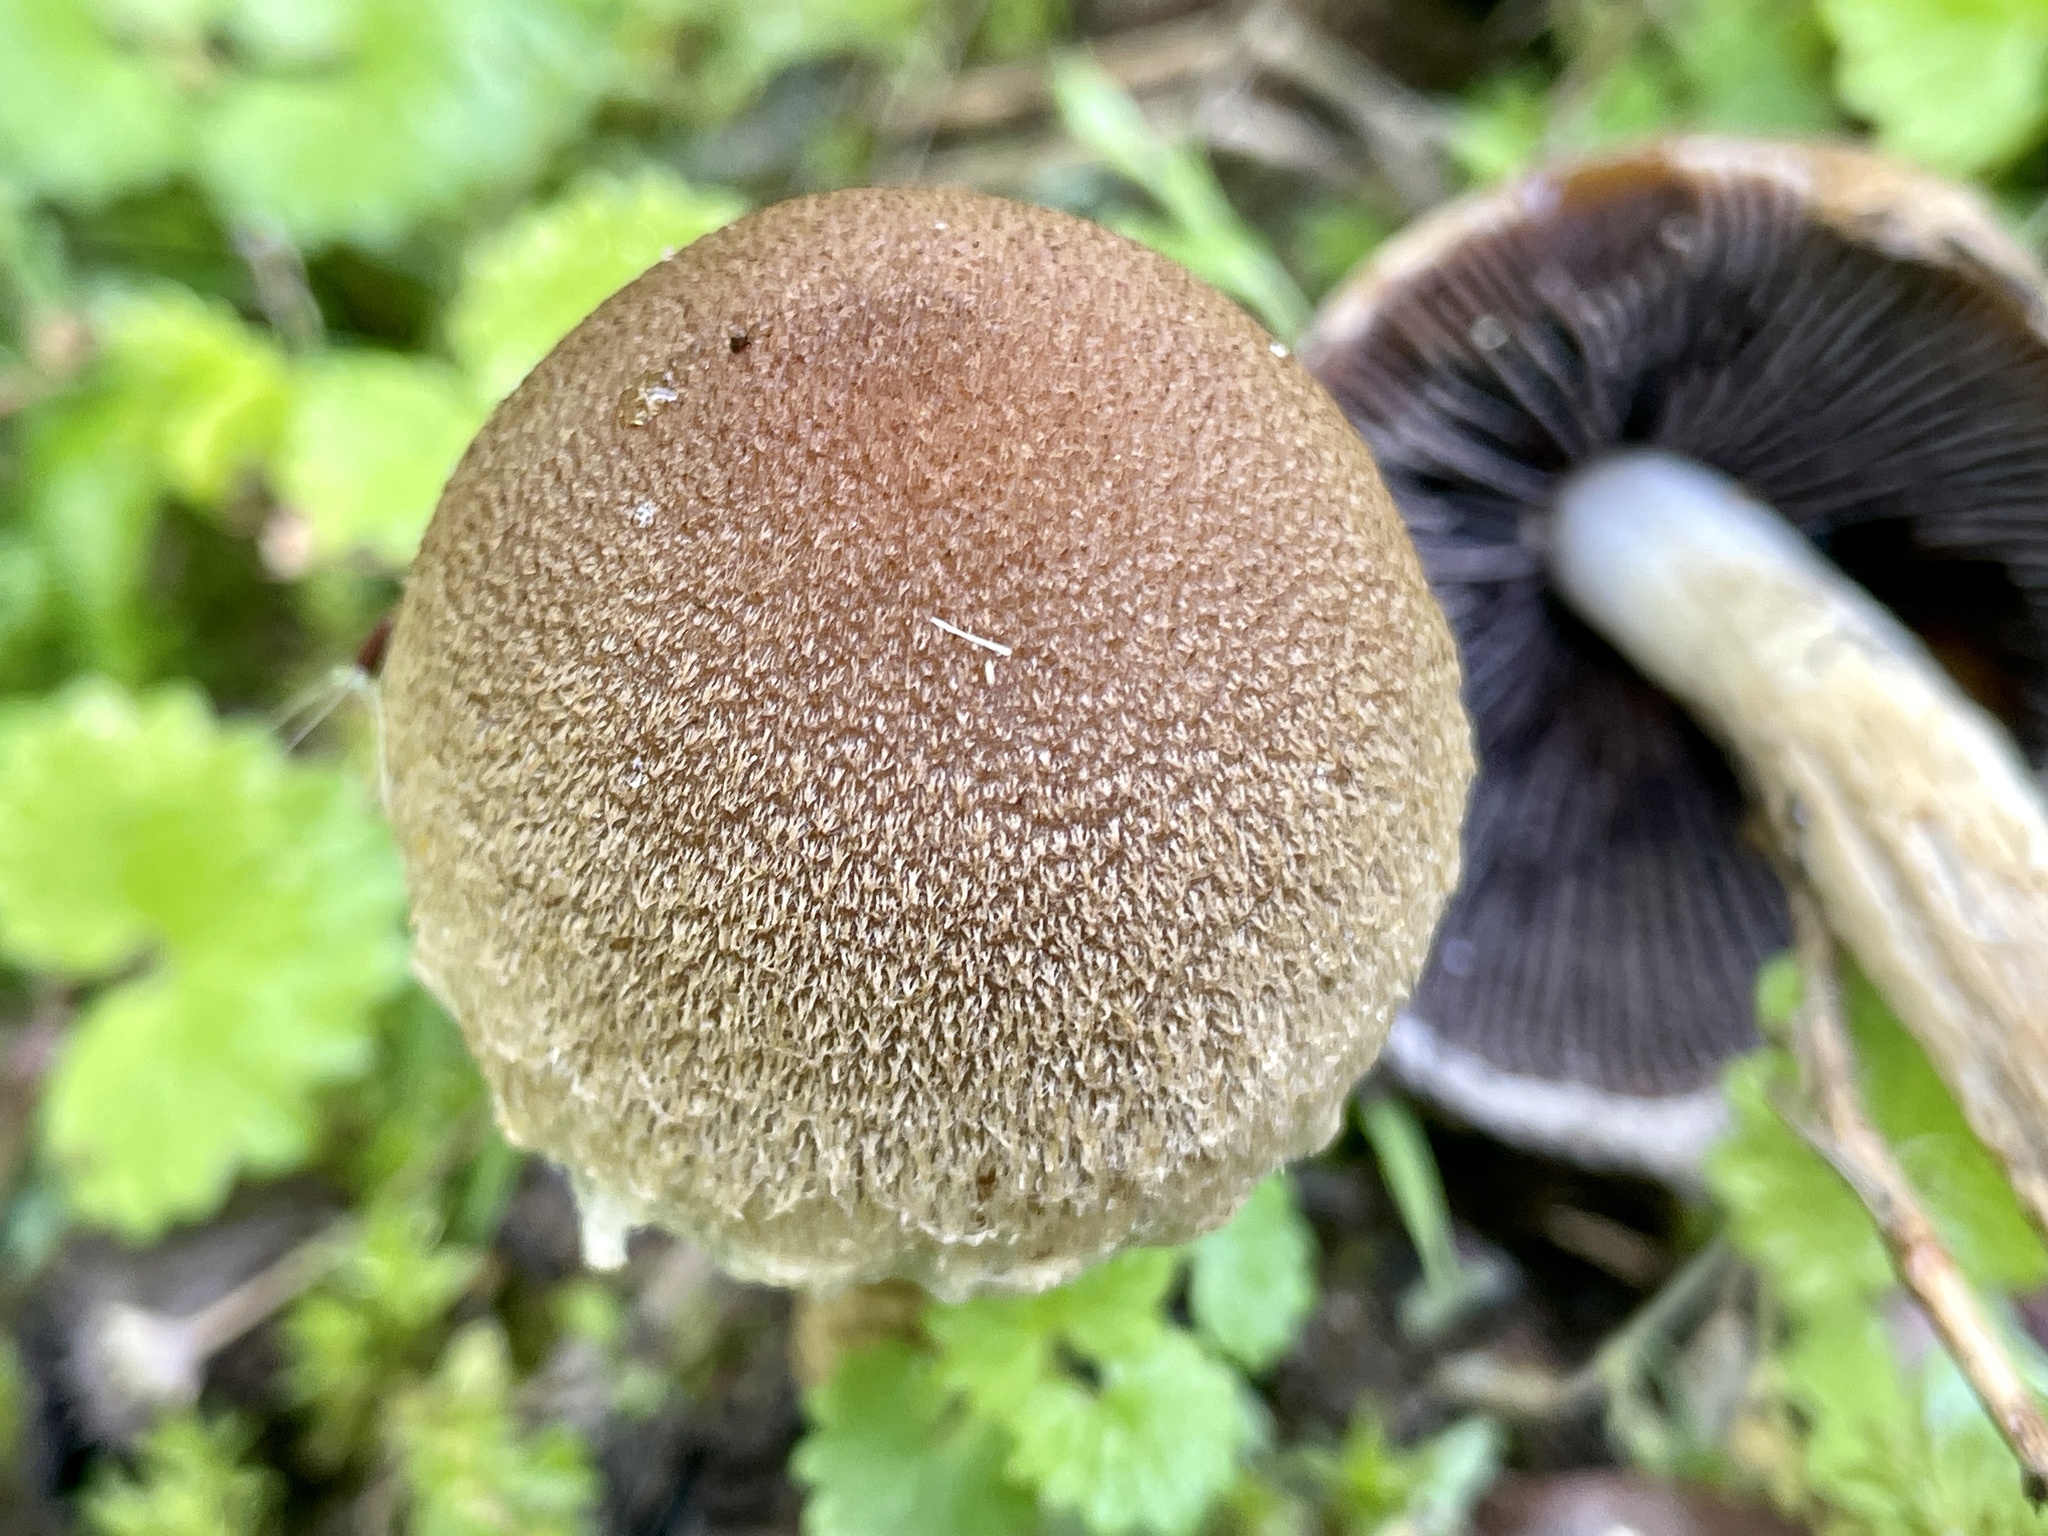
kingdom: Fungi
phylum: Basidiomycota
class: Agaricomycetes
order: Agaricales
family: Psathyrellaceae
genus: Lacrymaria
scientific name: Lacrymaria lacrymabunda
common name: Weeping widow
